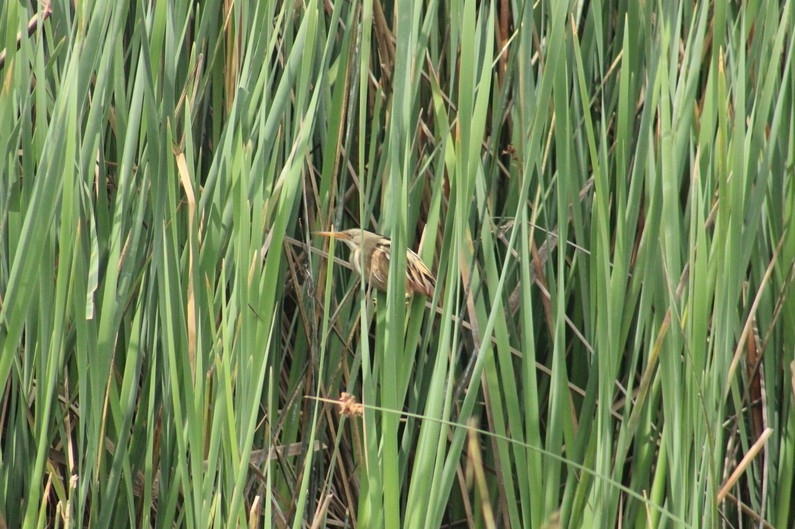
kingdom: Animalia
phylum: Chordata
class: Aves
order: Pelecaniformes
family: Ardeidae
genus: Ixobrychus
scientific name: Ixobrychus involucris
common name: Stripe-backed bittern
